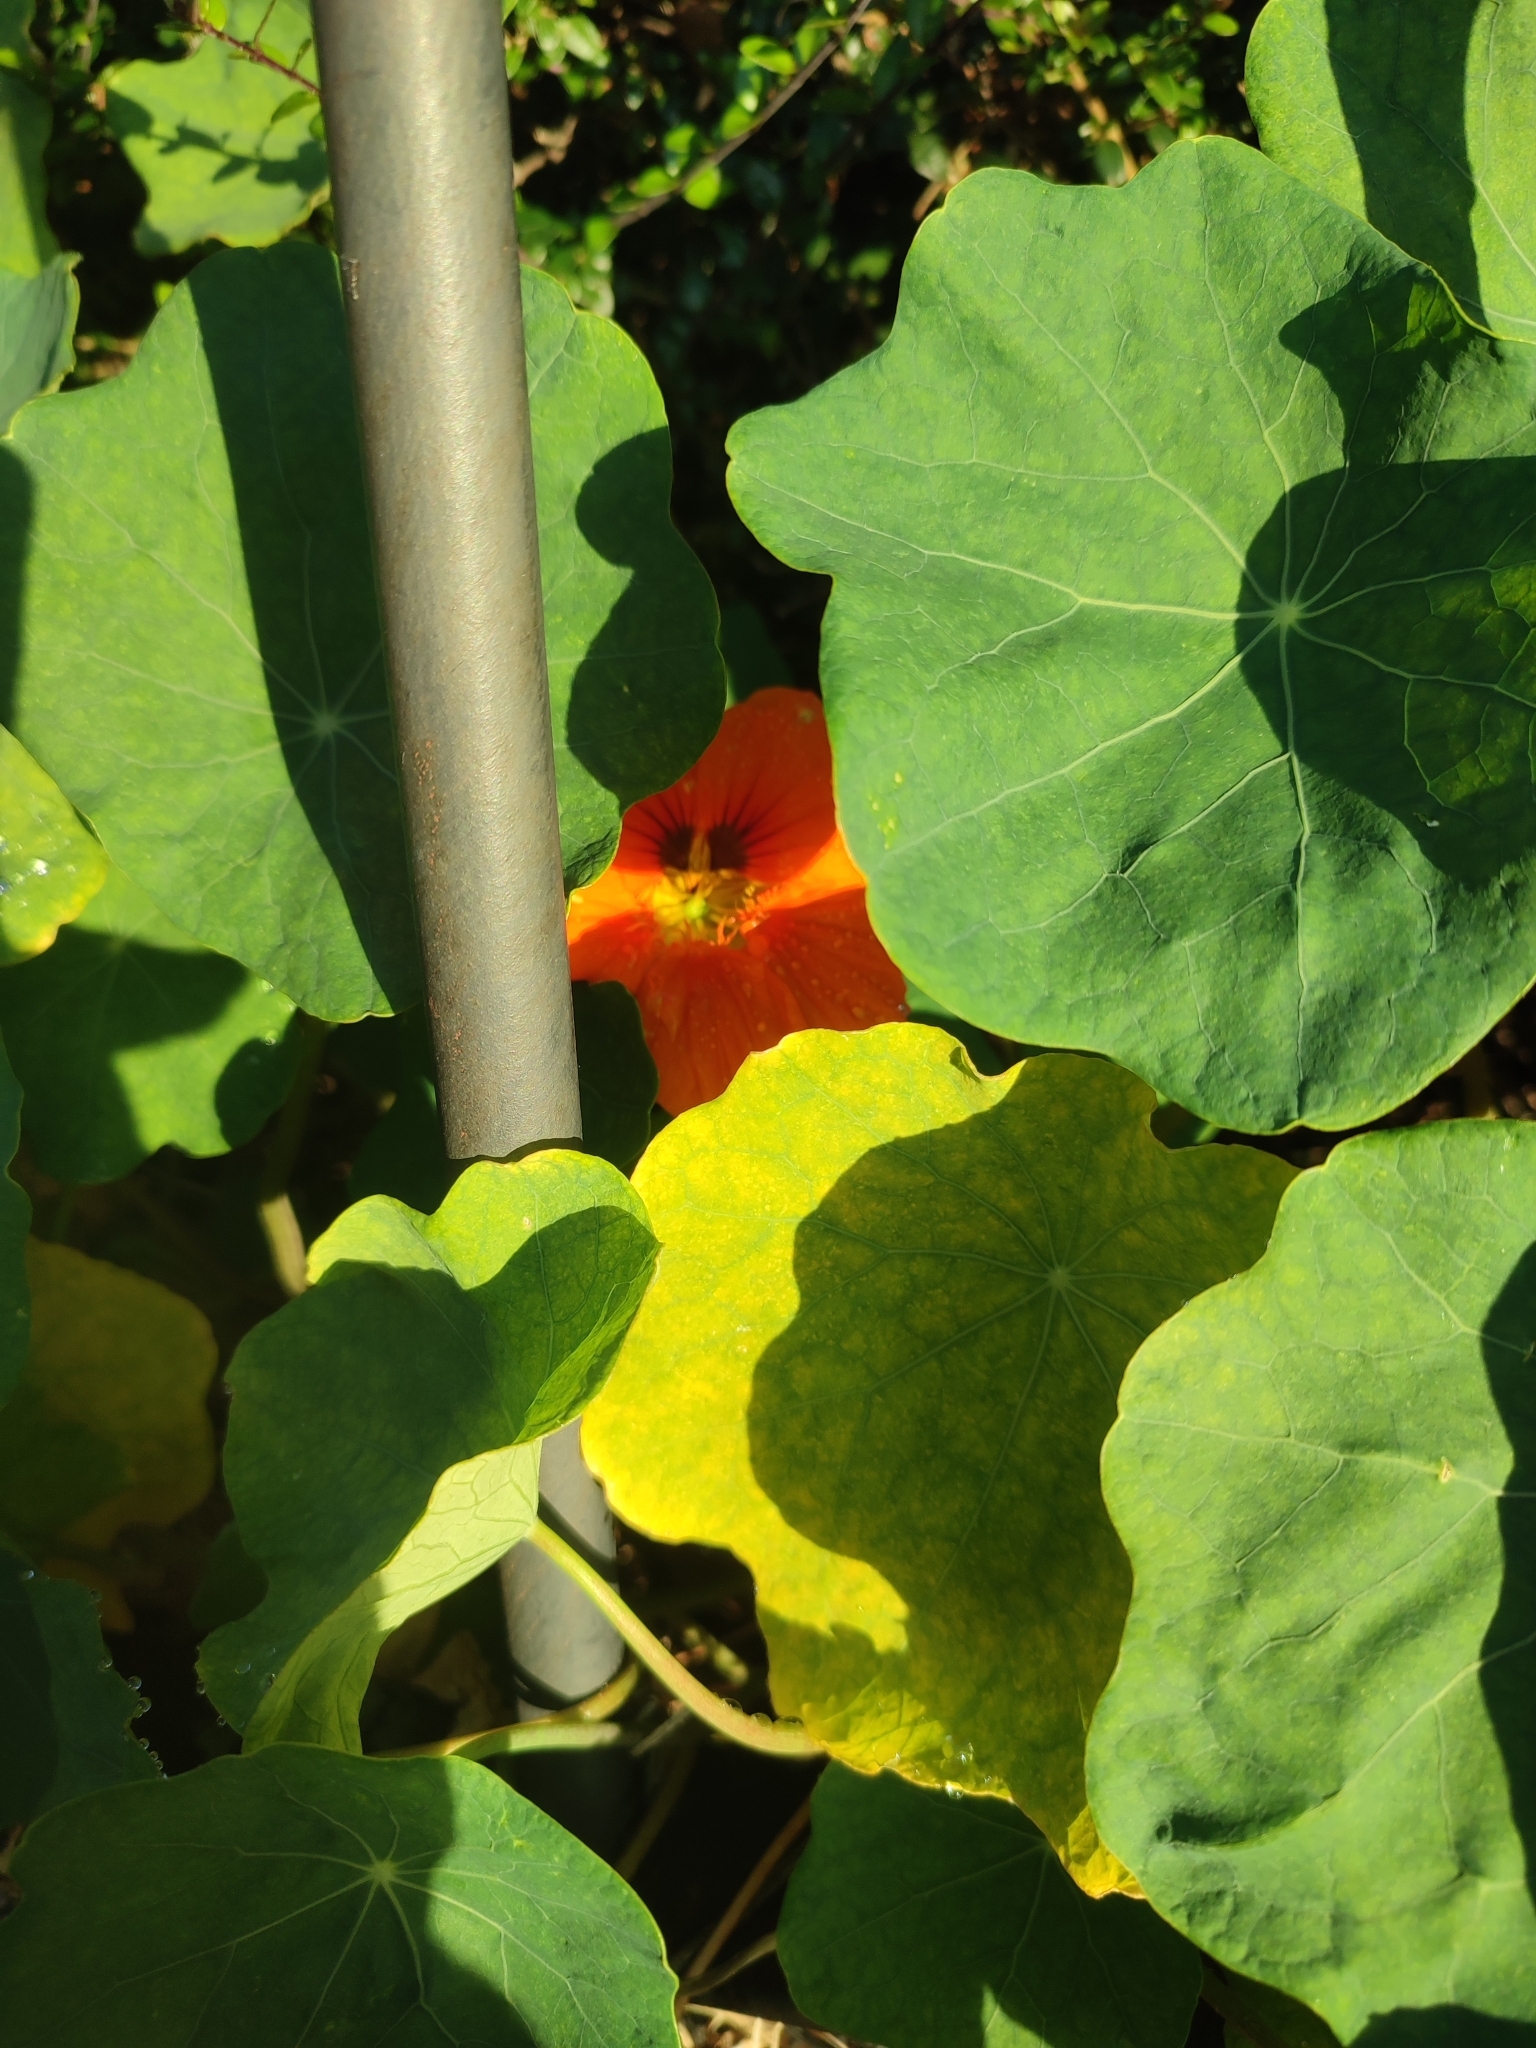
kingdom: Plantae
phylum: Tracheophyta
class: Magnoliopsida
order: Brassicales
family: Tropaeolaceae
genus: Tropaeolum
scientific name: Tropaeolum majus
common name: Nasturtium
